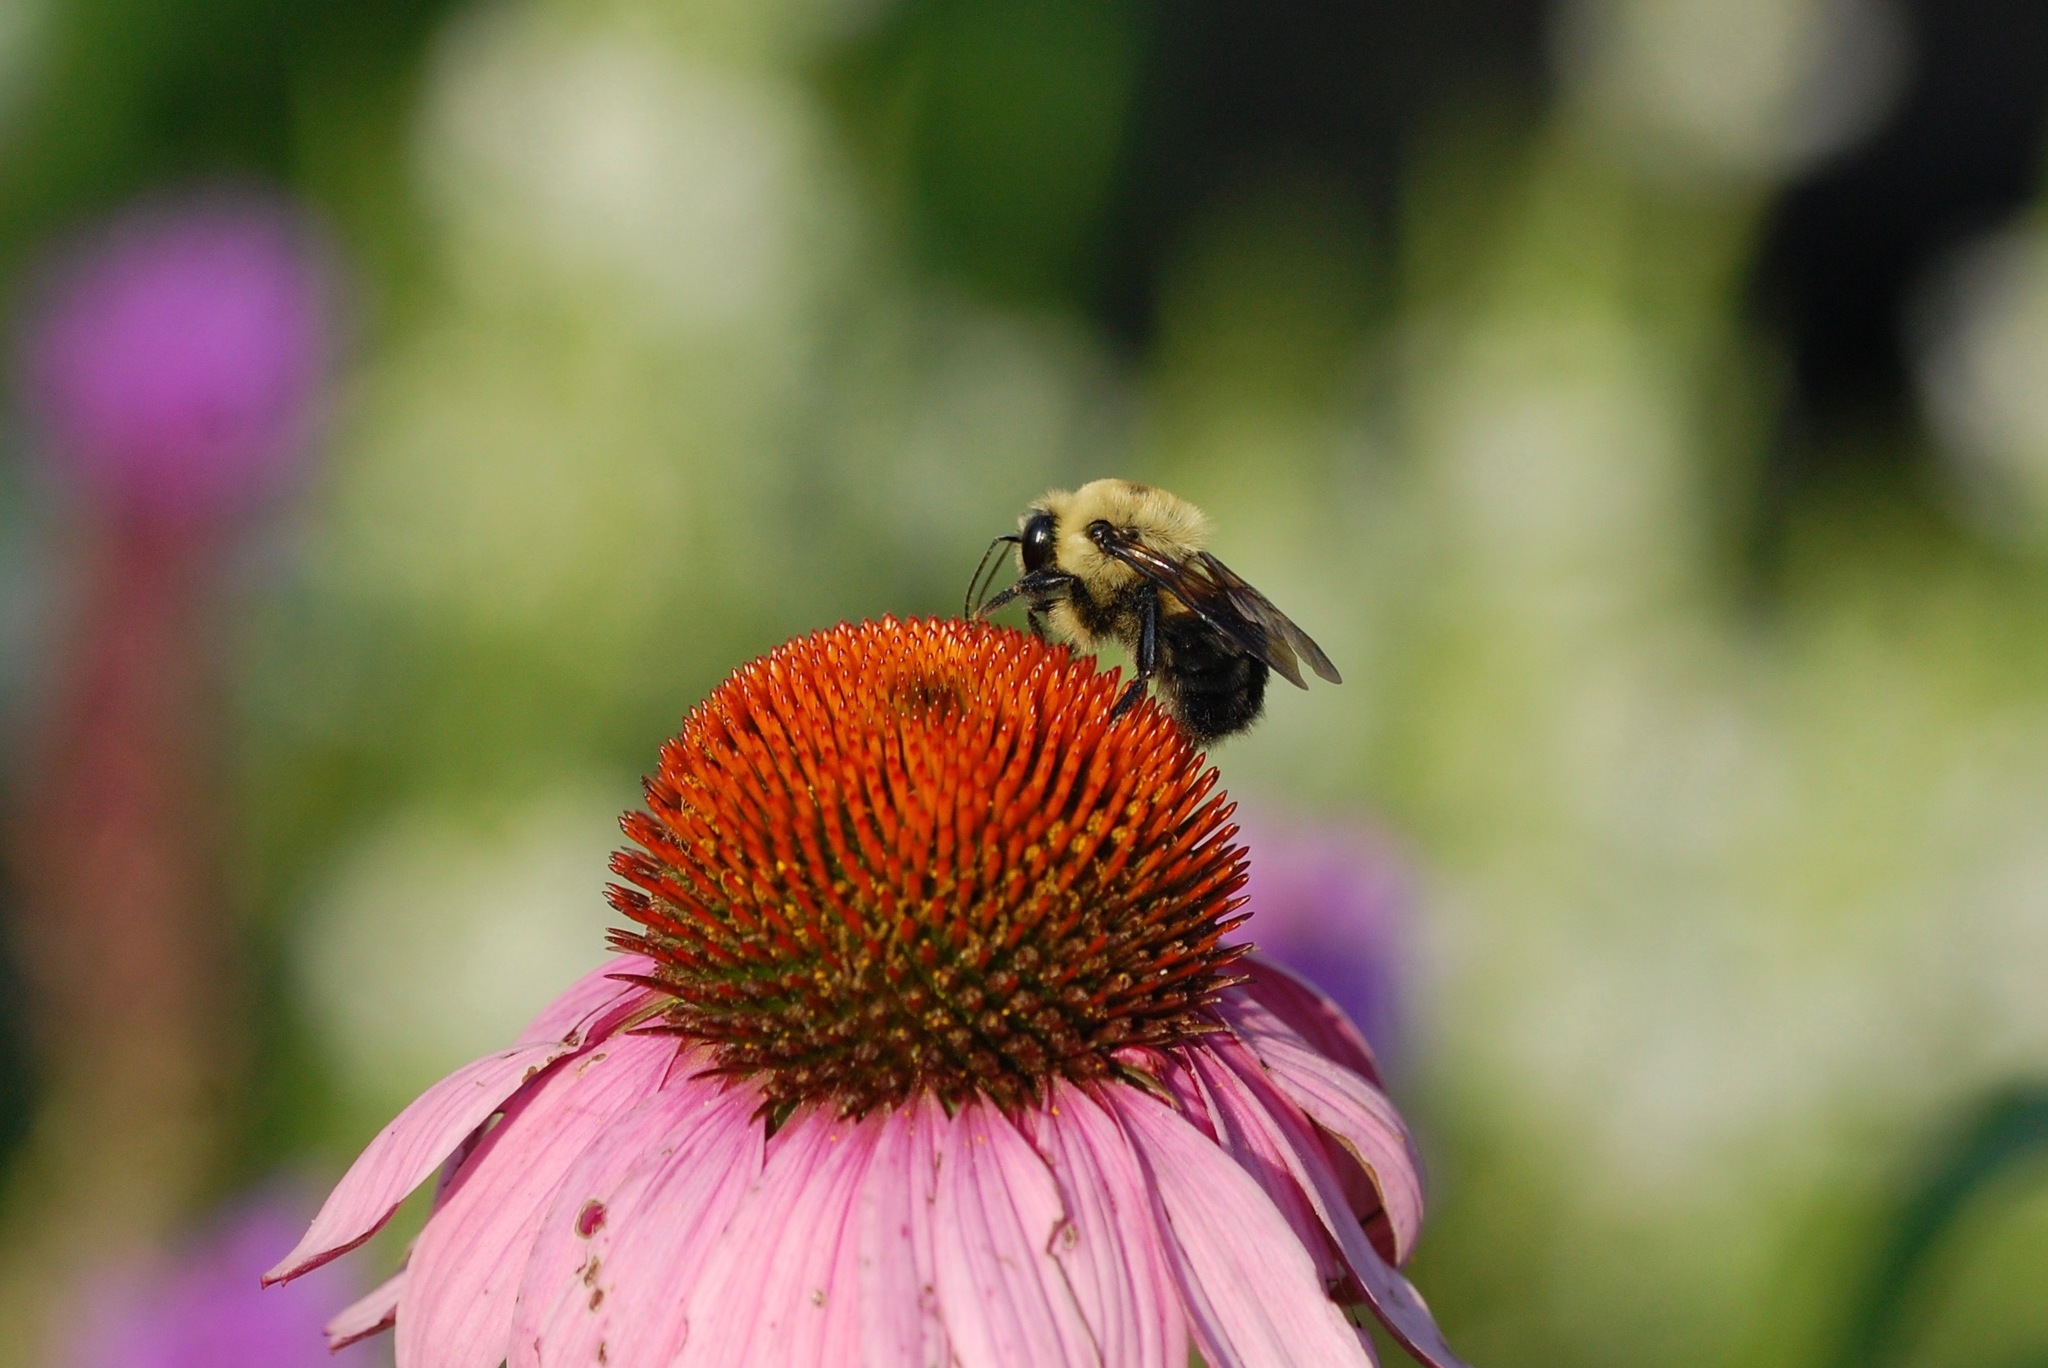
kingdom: Animalia
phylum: Arthropoda
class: Insecta
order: Hymenoptera
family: Apidae
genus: Bombus
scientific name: Bombus griseocollis
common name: Brown-belted bumble bee
